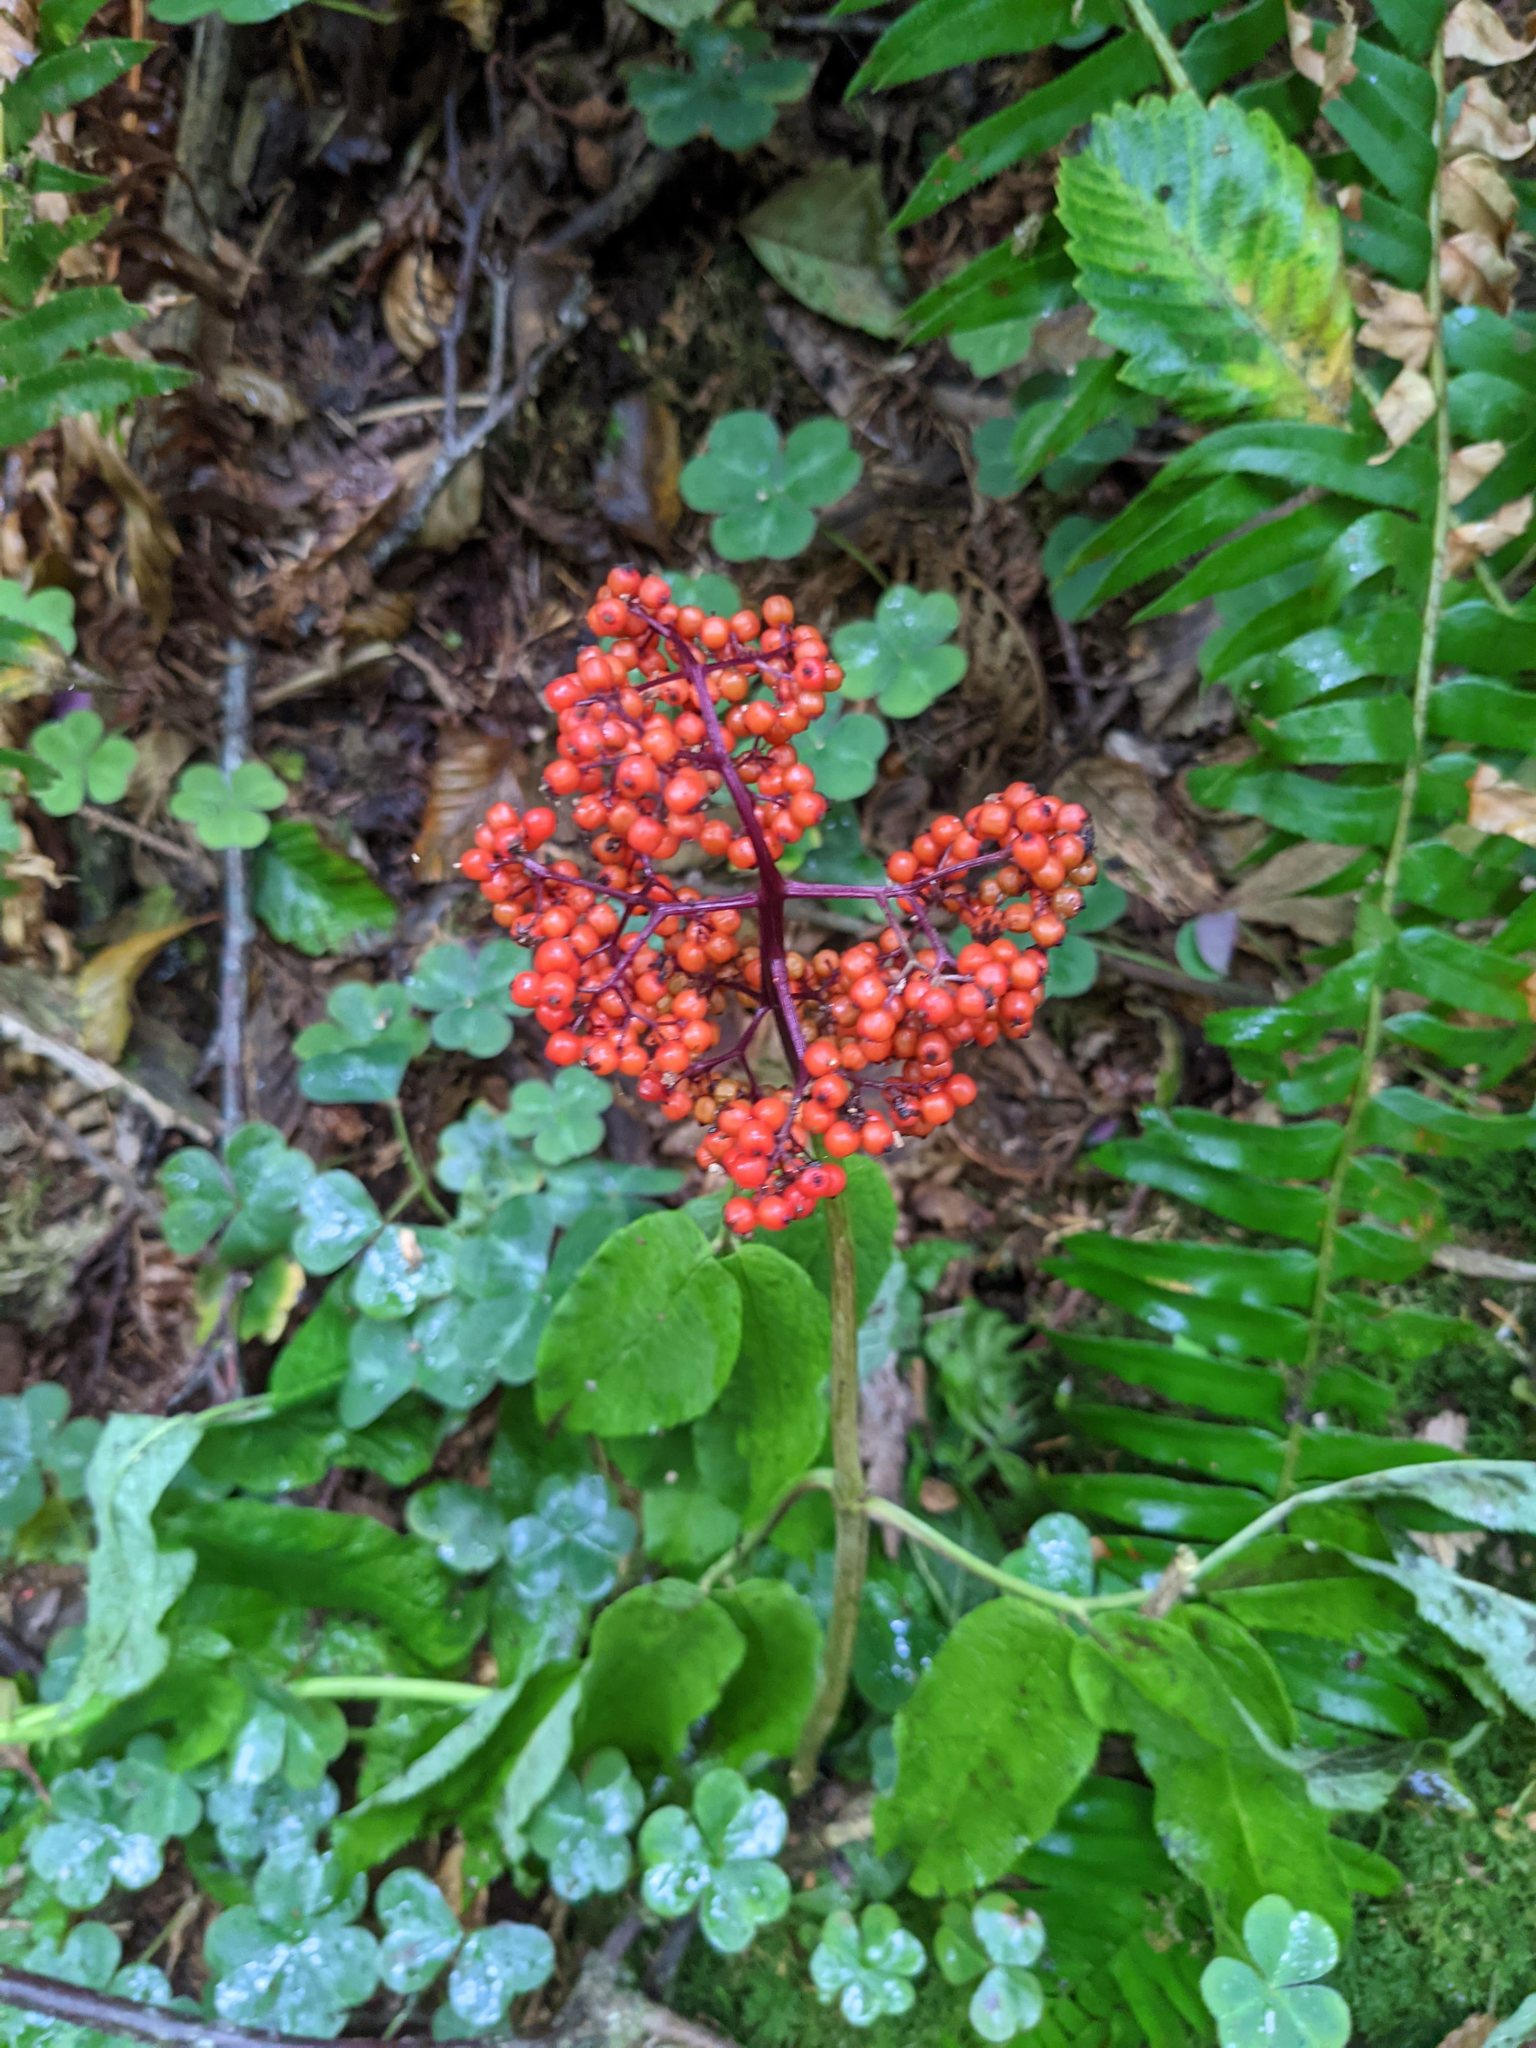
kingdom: Plantae
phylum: Tracheophyta
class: Magnoliopsida
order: Dipsacales
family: Viburnaceae
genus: Sambucus
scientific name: Sambucus racemosa
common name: Red-berried elder
